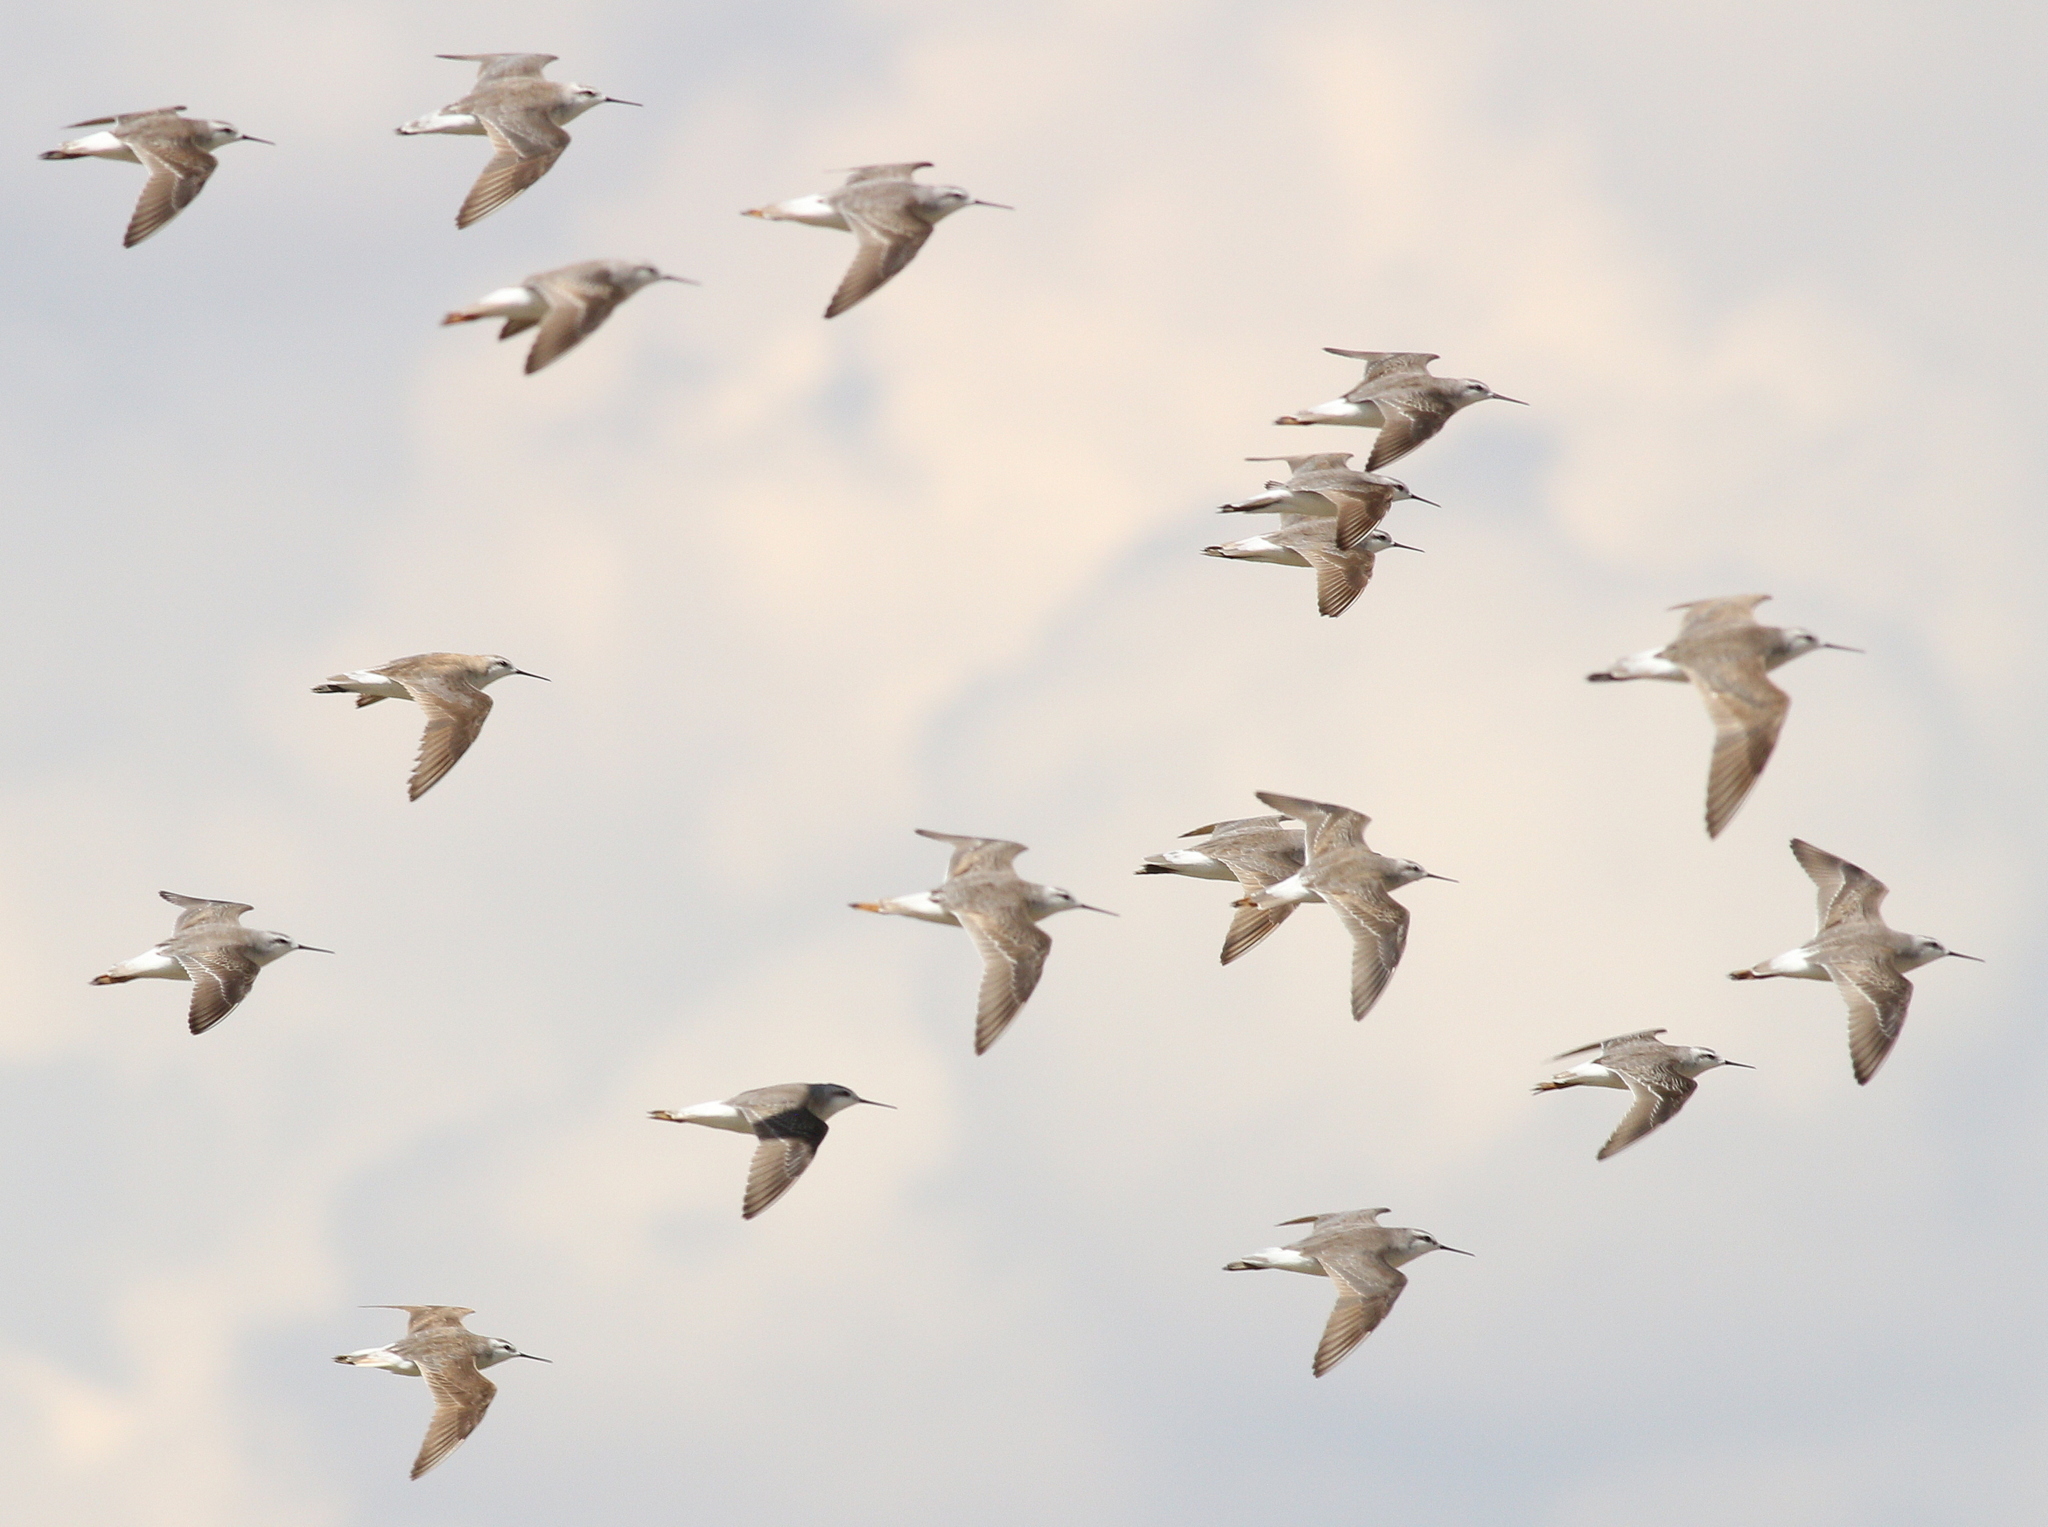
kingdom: Animalia
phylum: Chordata
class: Aves
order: Charadriiformes
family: Scolopacidae
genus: Phalaropus
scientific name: Phalaropus tricolor
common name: Wilson's phalarope
